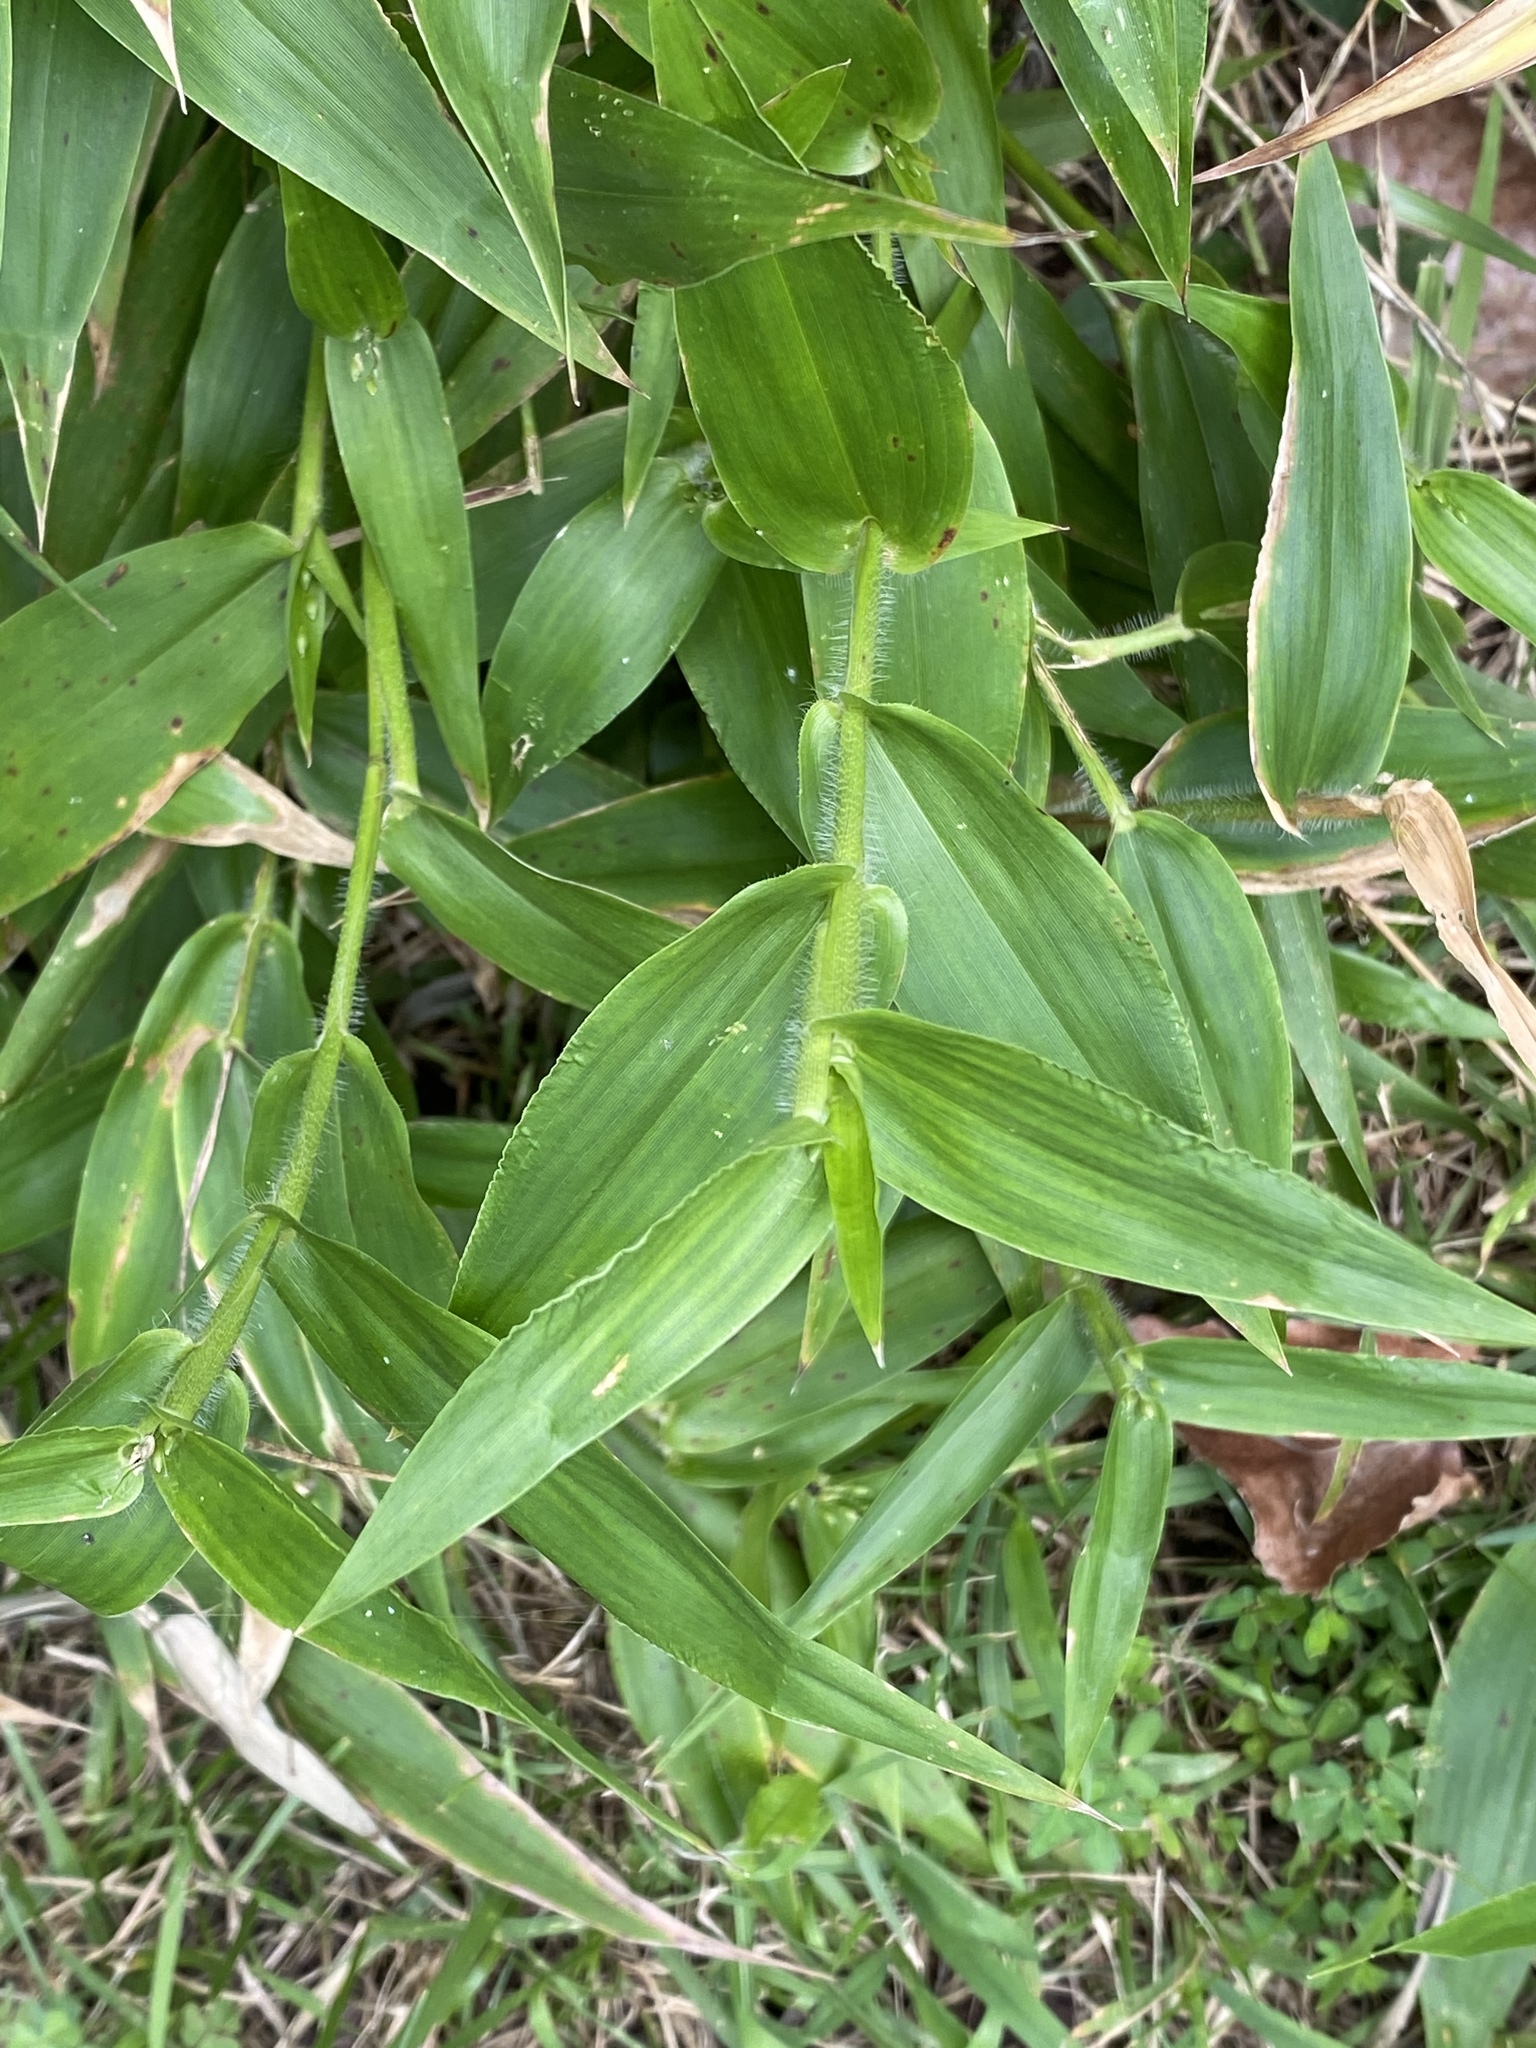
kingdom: Plantae
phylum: Tracheophyta
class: Liliopsida
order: Poales
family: Poaceae
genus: Dichanthelium
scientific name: Dichanthelium clandestinum
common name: Deer-tongue grass
